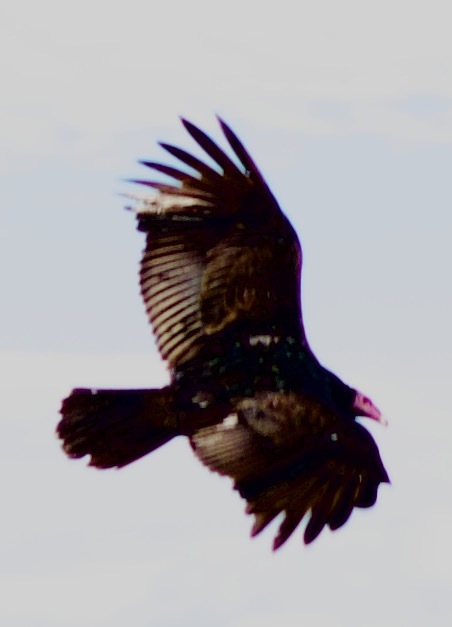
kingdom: Animalia
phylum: Chordata
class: Aves
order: Accipitriformes
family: Cathartidae
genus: Cathartes
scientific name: Cathartes aura
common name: Turkey vulture
